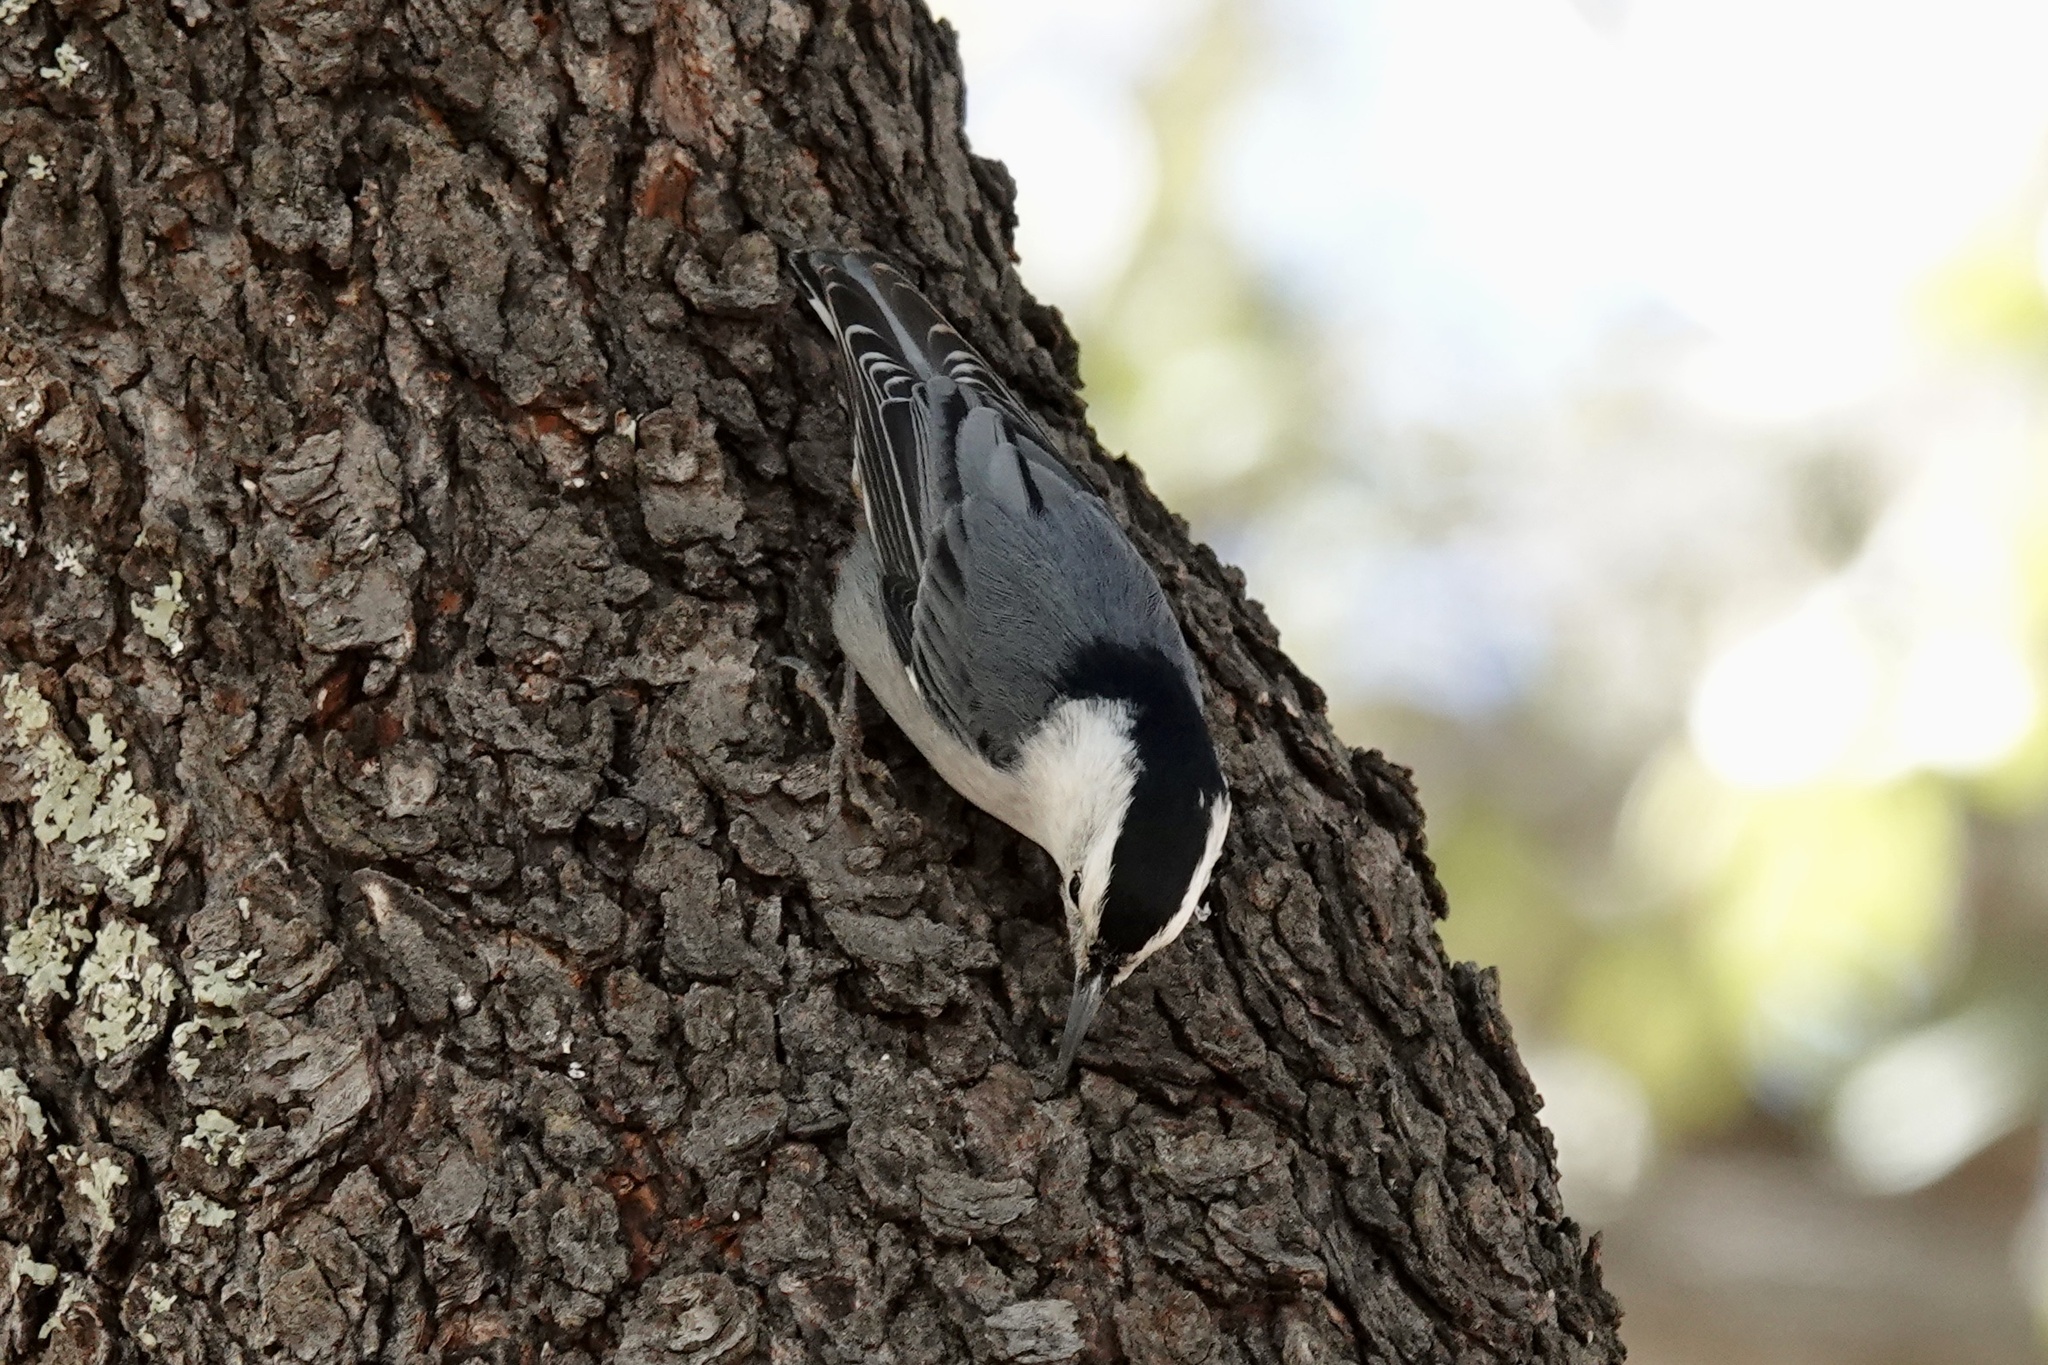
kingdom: Animalia
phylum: Chordata
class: Aves
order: Passeriformes
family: Sittidae
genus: Sitta
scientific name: Sitta carolinensis
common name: White-breasted nuthatch
